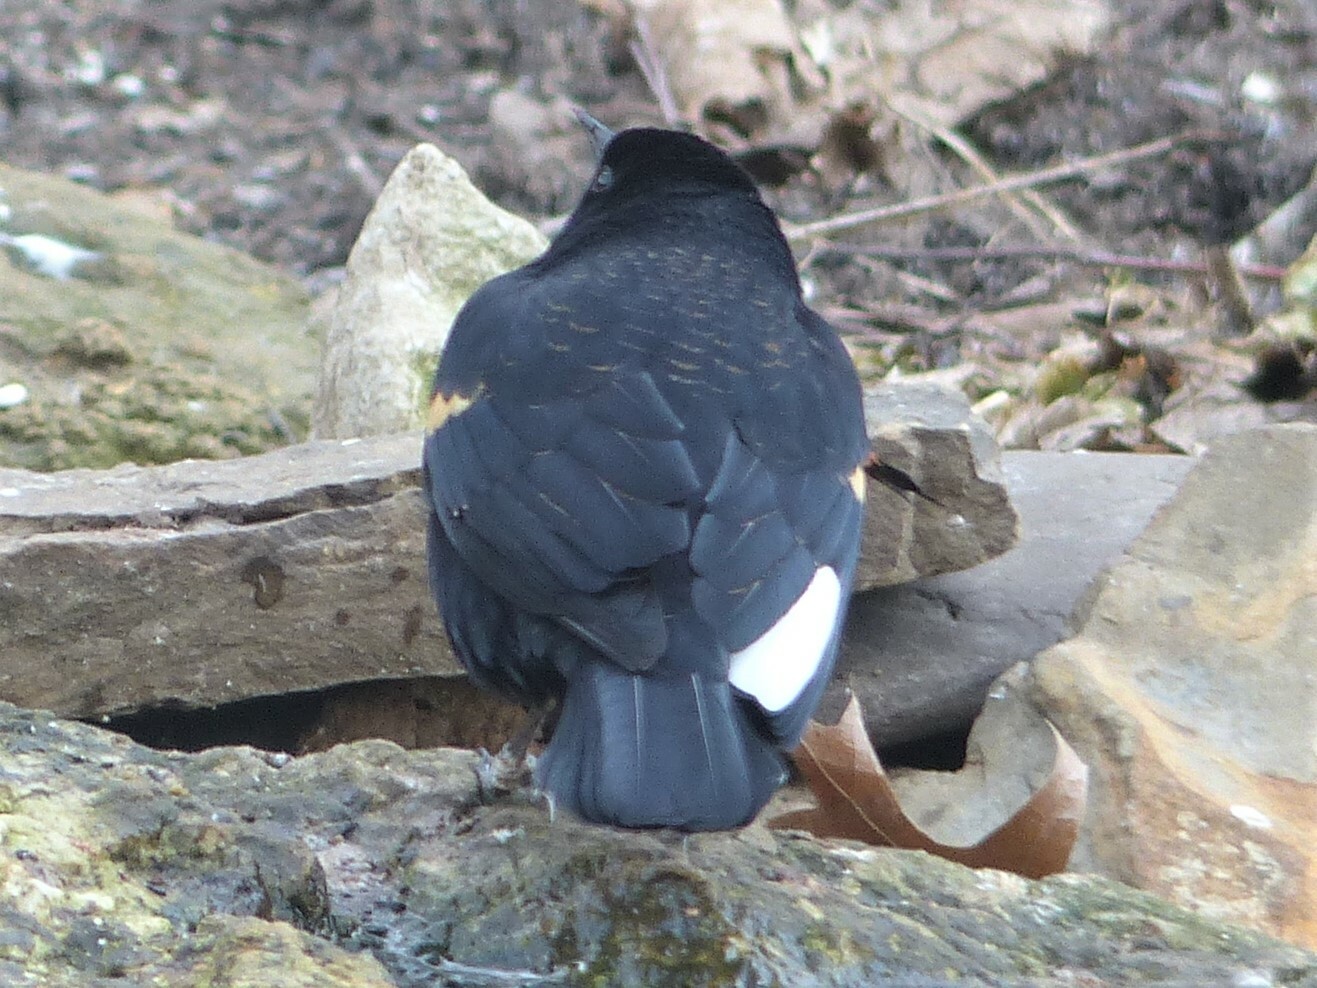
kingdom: Animalia
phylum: Chordata
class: Aves
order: Passeriformes
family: Icteridae
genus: Agelaius
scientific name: Agelaius phoeniceus
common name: Red-winged blackbird
